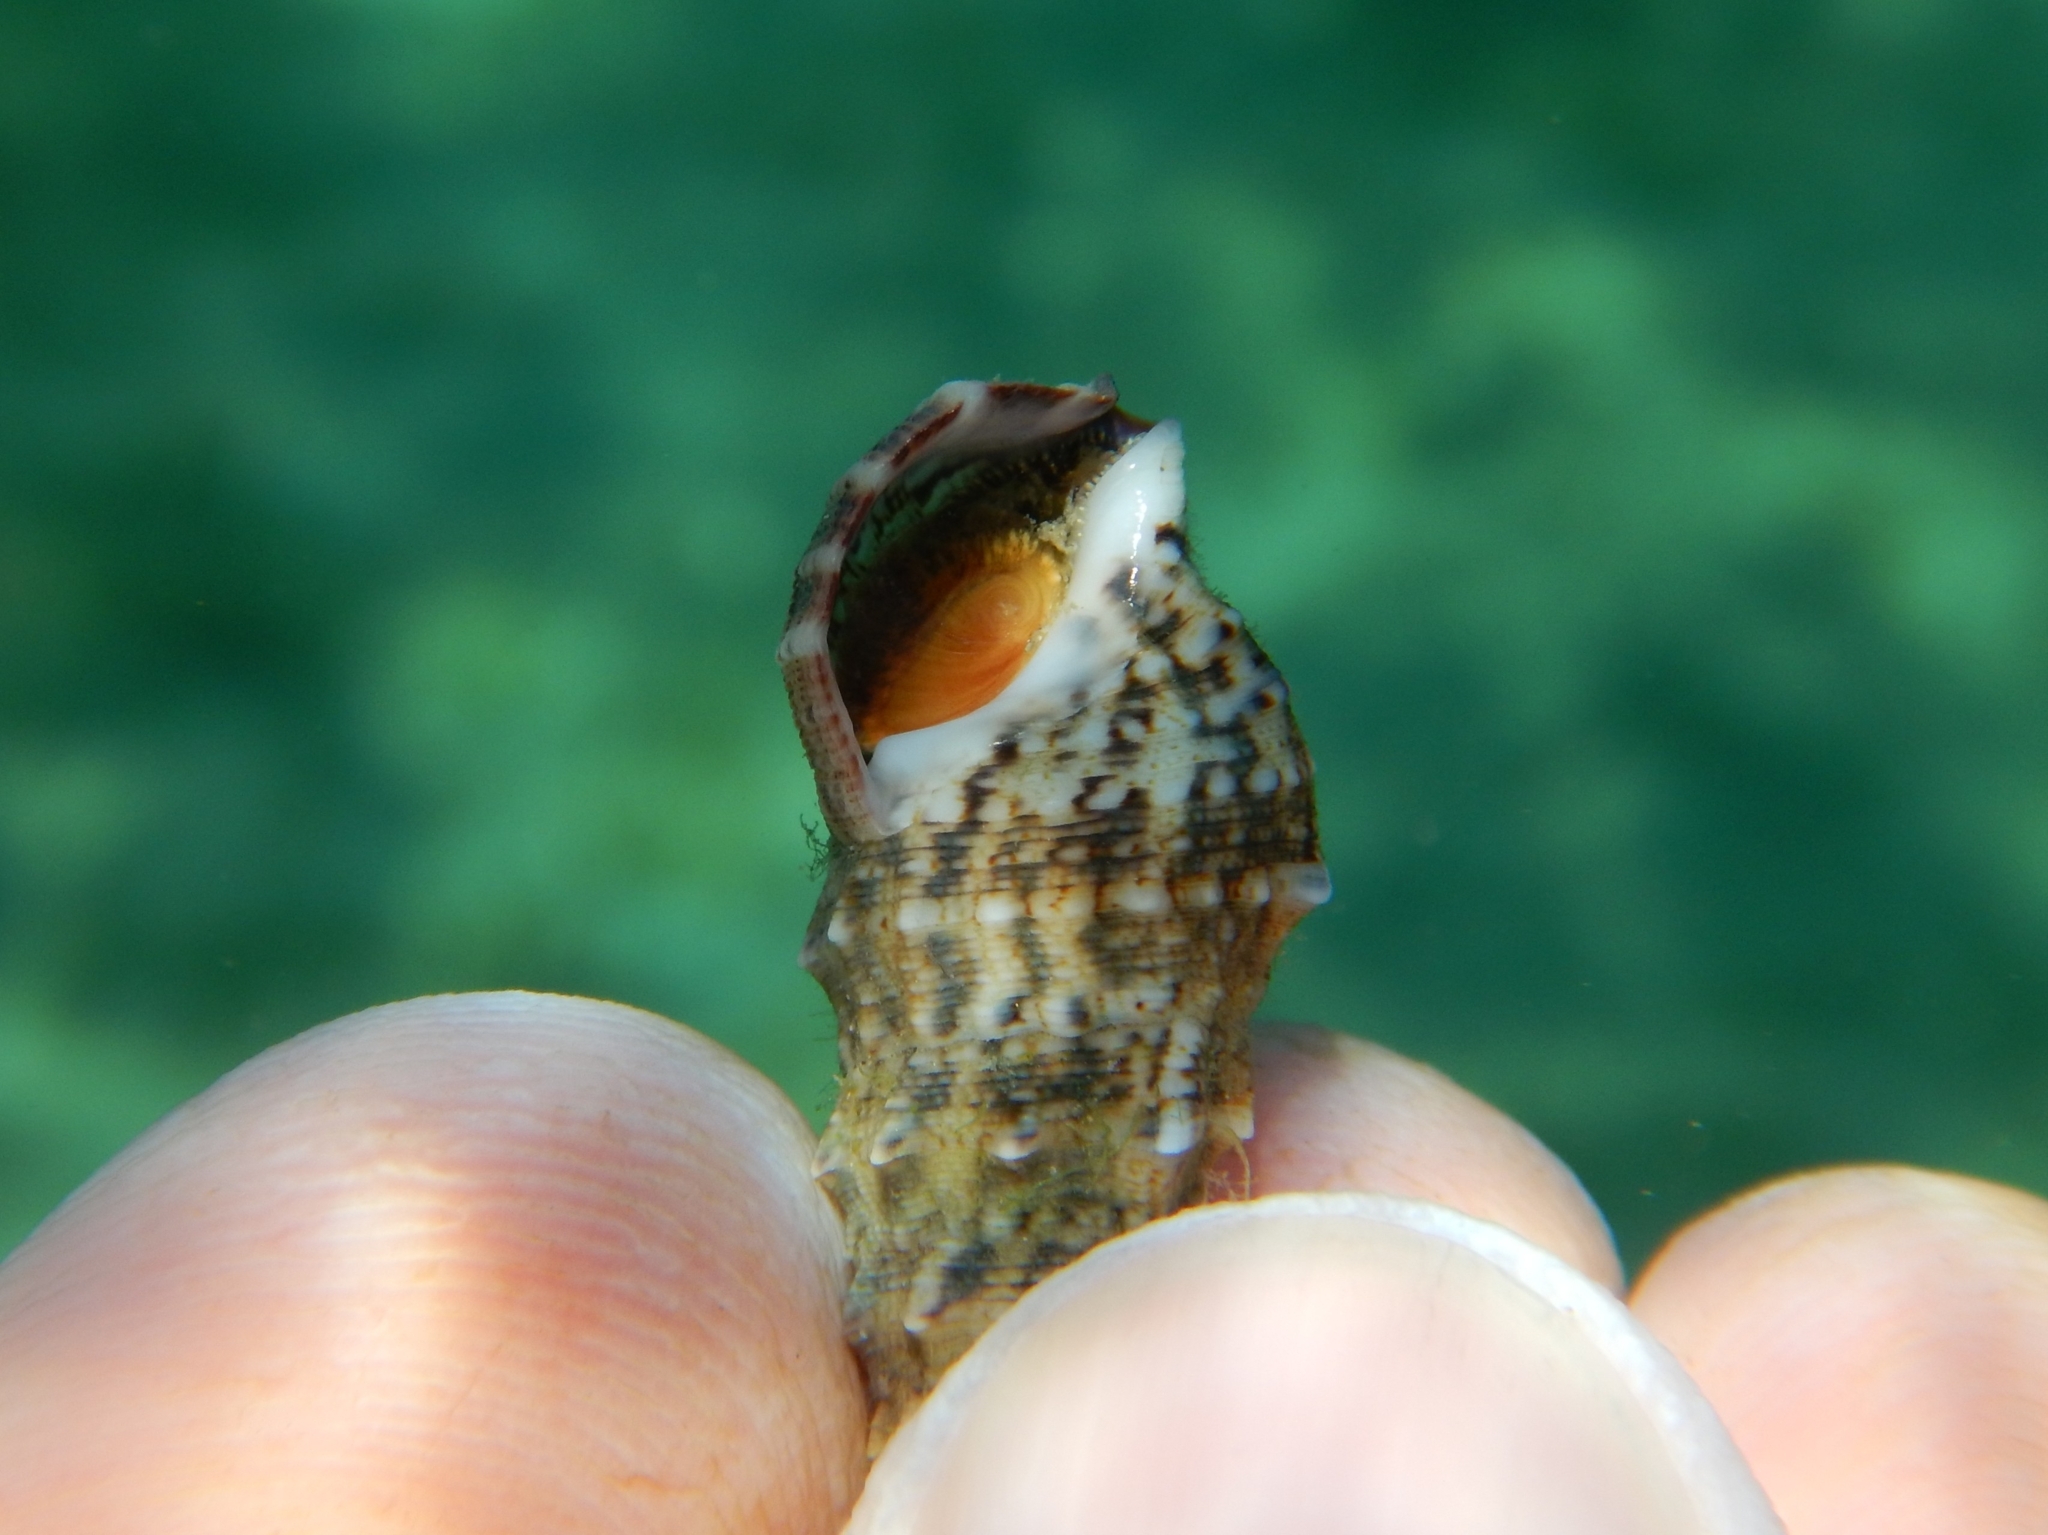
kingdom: Animalia
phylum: Mollusca
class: Gastropoda
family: Cerithiidae
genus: Cerithium
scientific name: Cerithium vulgatum
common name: European cerith
